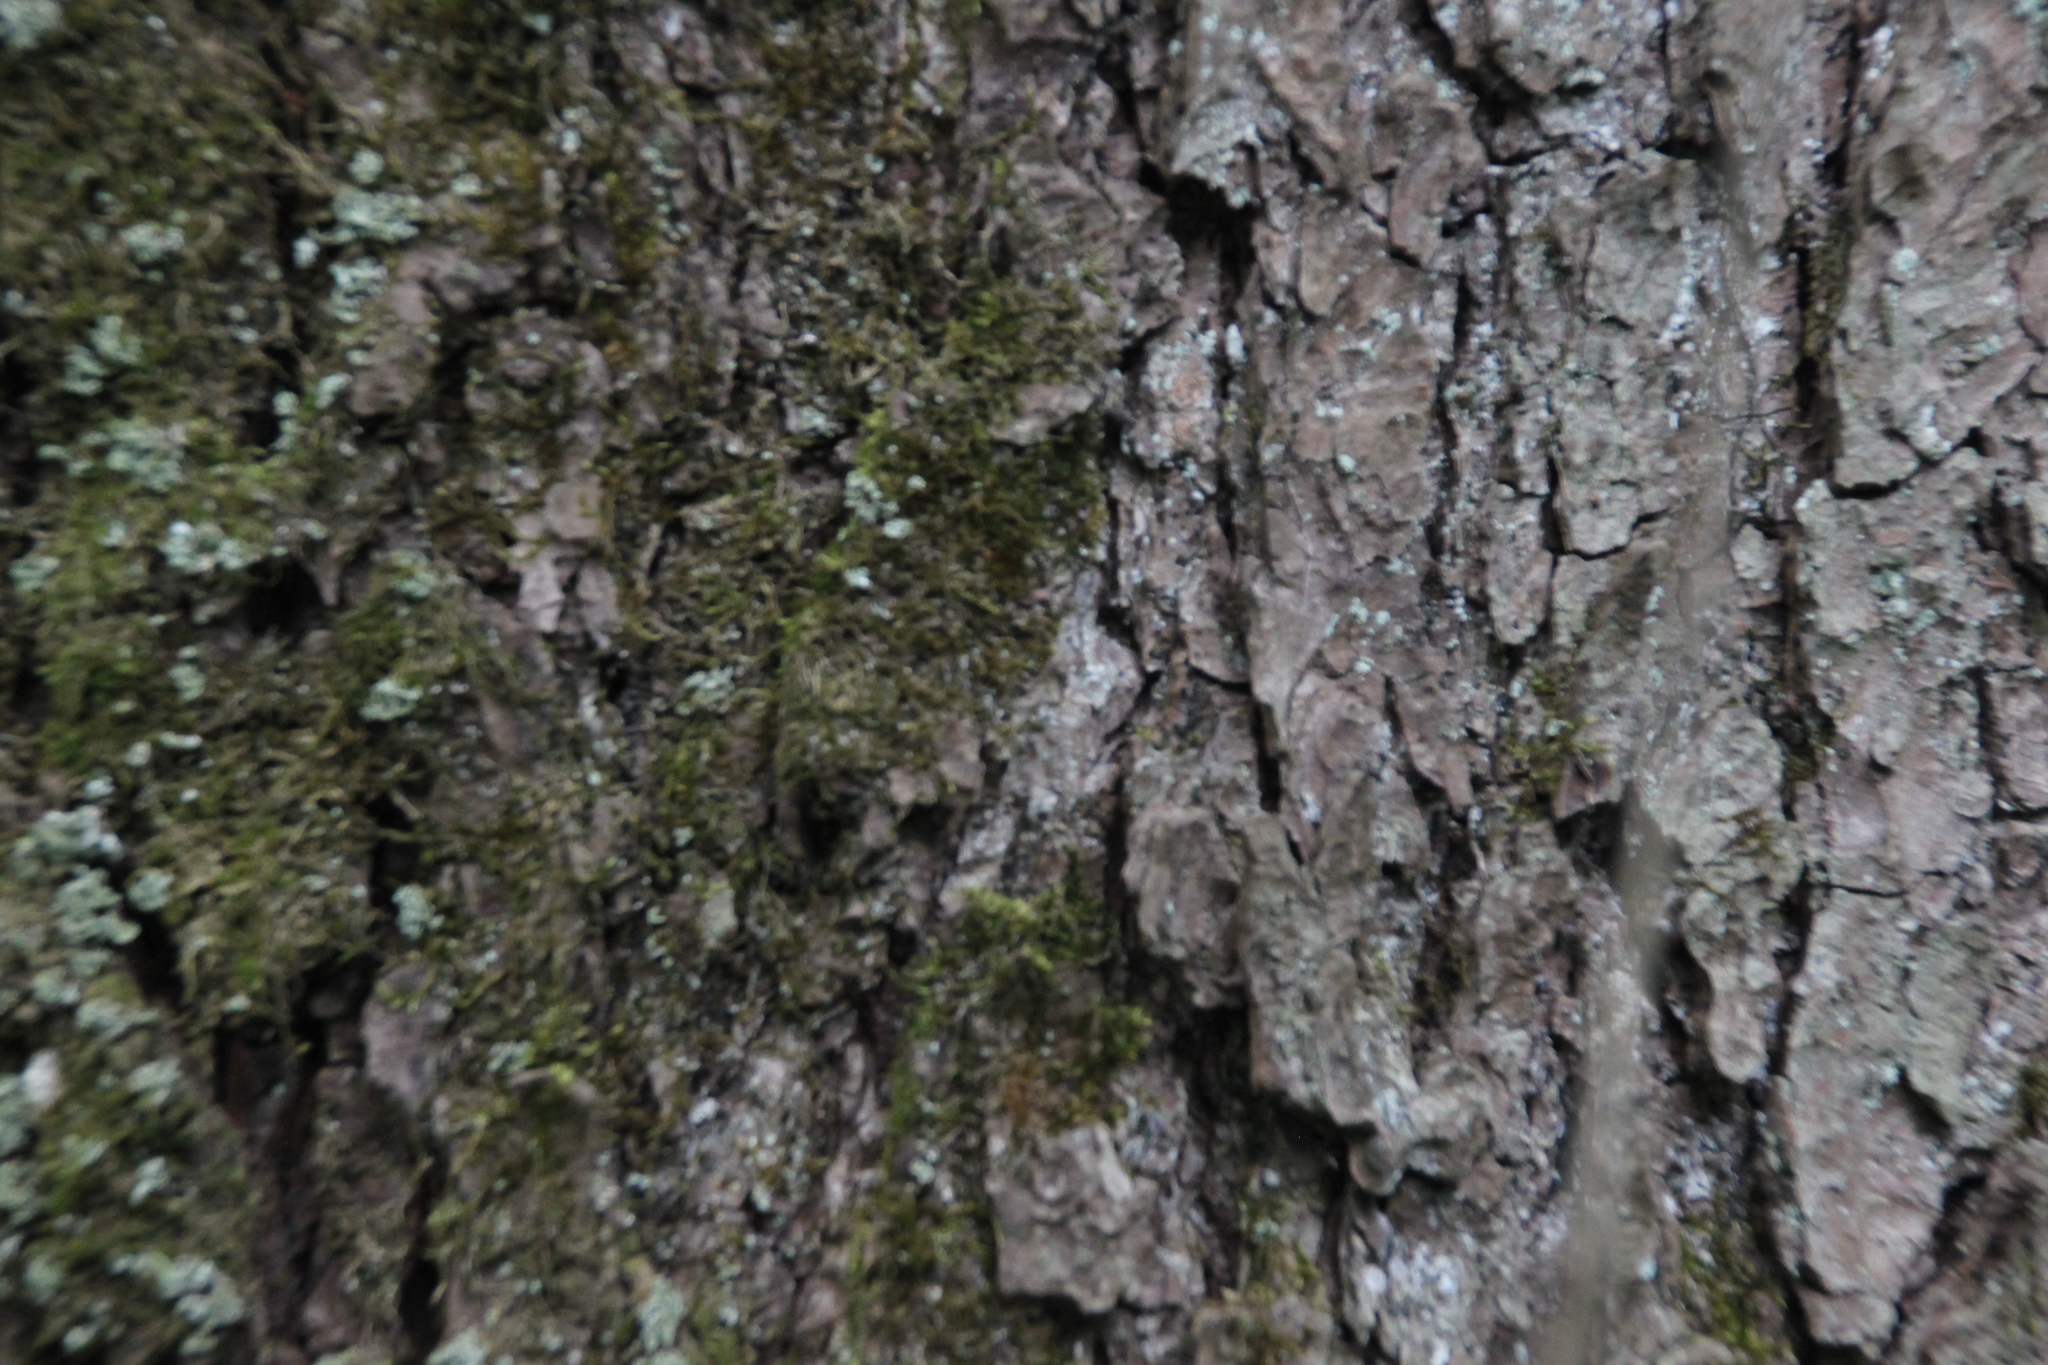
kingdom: Plantae
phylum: Tracheophyta
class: Magnoliopsida
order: Fagales
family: Betulaceae
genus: Alnus
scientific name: Alnus glutinosa
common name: Black alder
